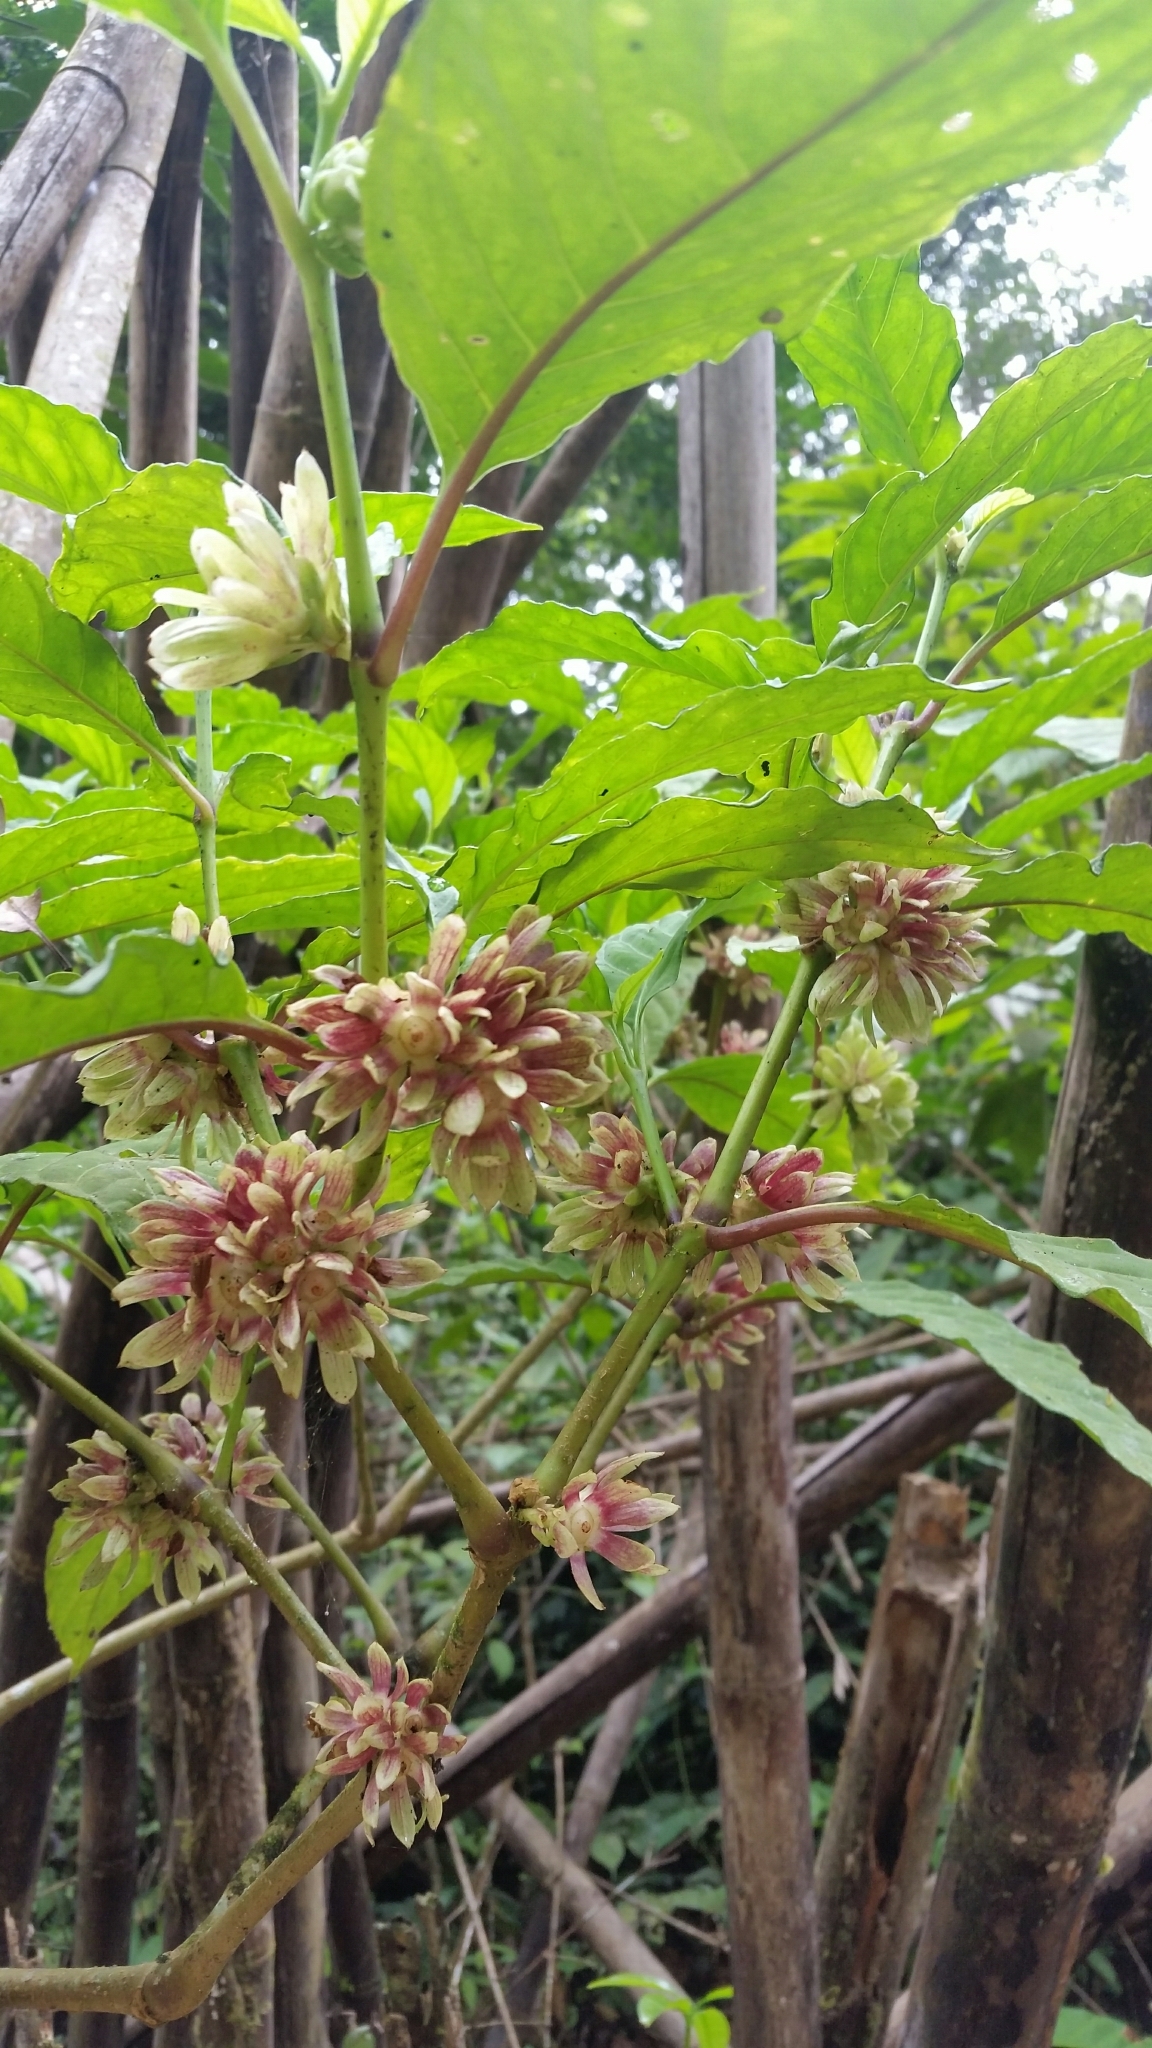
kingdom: Plantae
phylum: Tracheophyta
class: Magnoliopsida
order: Lamiales
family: Carlemanniaceae
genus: Silvianthus
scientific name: Silvianthus bracteatus
